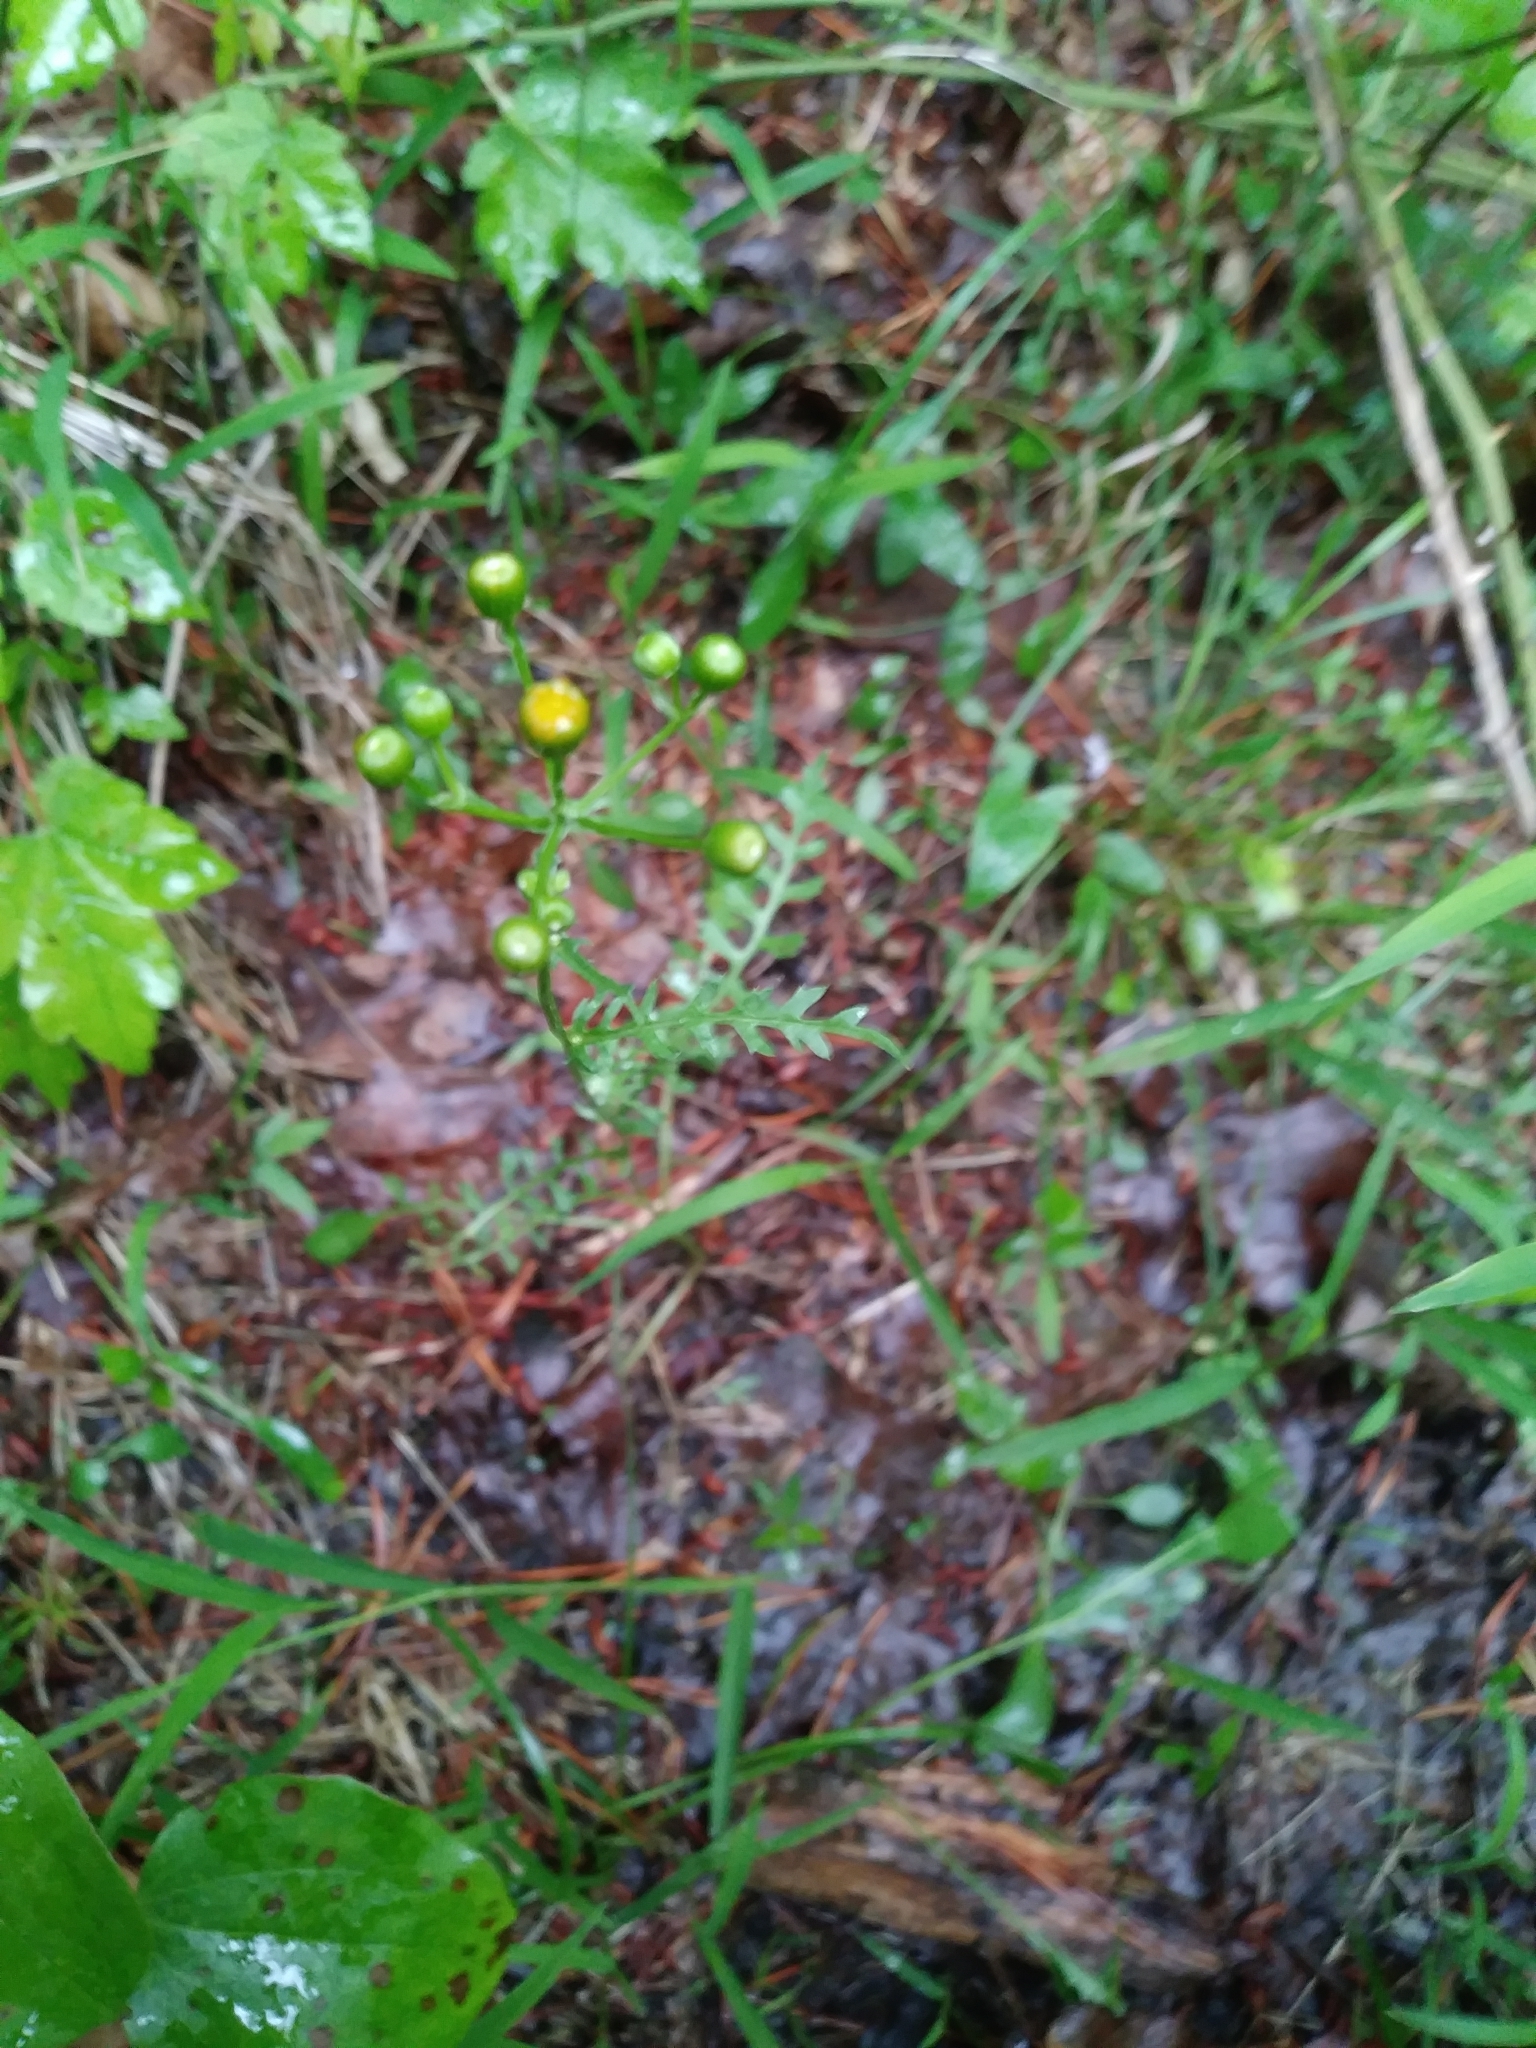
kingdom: Plantae
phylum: Tracheophyta
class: Magnoliopsida
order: Asterales
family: Asteraceae
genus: Packera
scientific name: Packera anonyma
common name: Small ragwort
